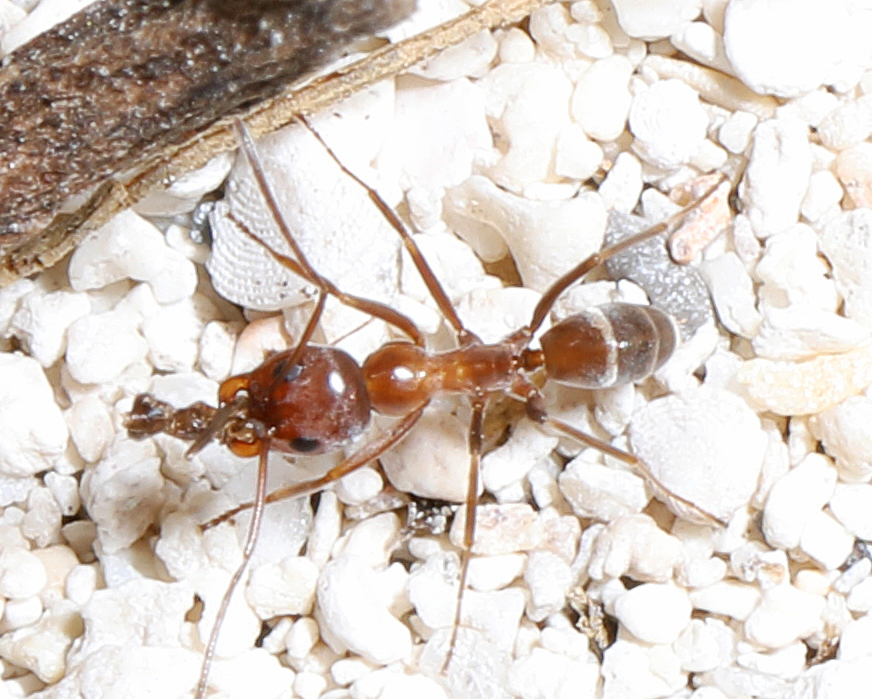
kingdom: Animalia
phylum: Arthropoda
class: Insecta
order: Hymenoptera
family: Formicidae
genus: Dorymyrmex
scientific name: Dorymyrmex bureni
